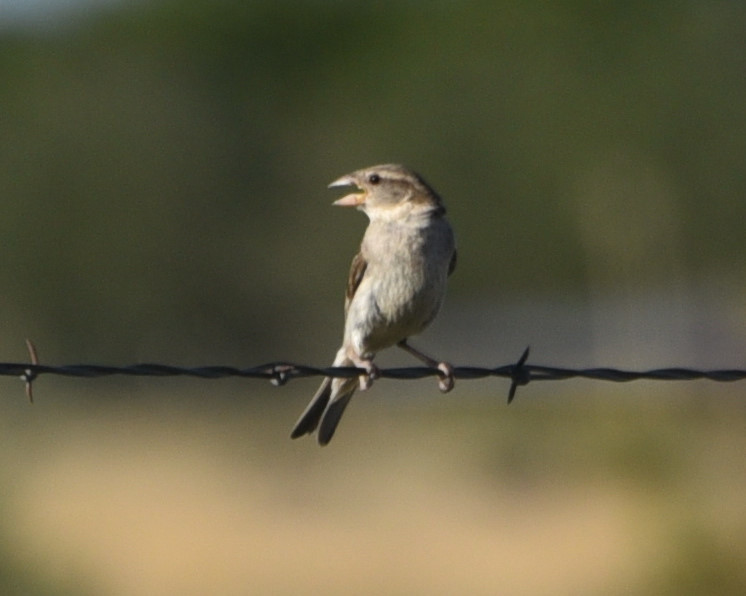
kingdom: Animalia
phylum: Chordata
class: Aves
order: Passeriformes
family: Passeridae
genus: Passer
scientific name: Passer domesticus
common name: House sparrow
